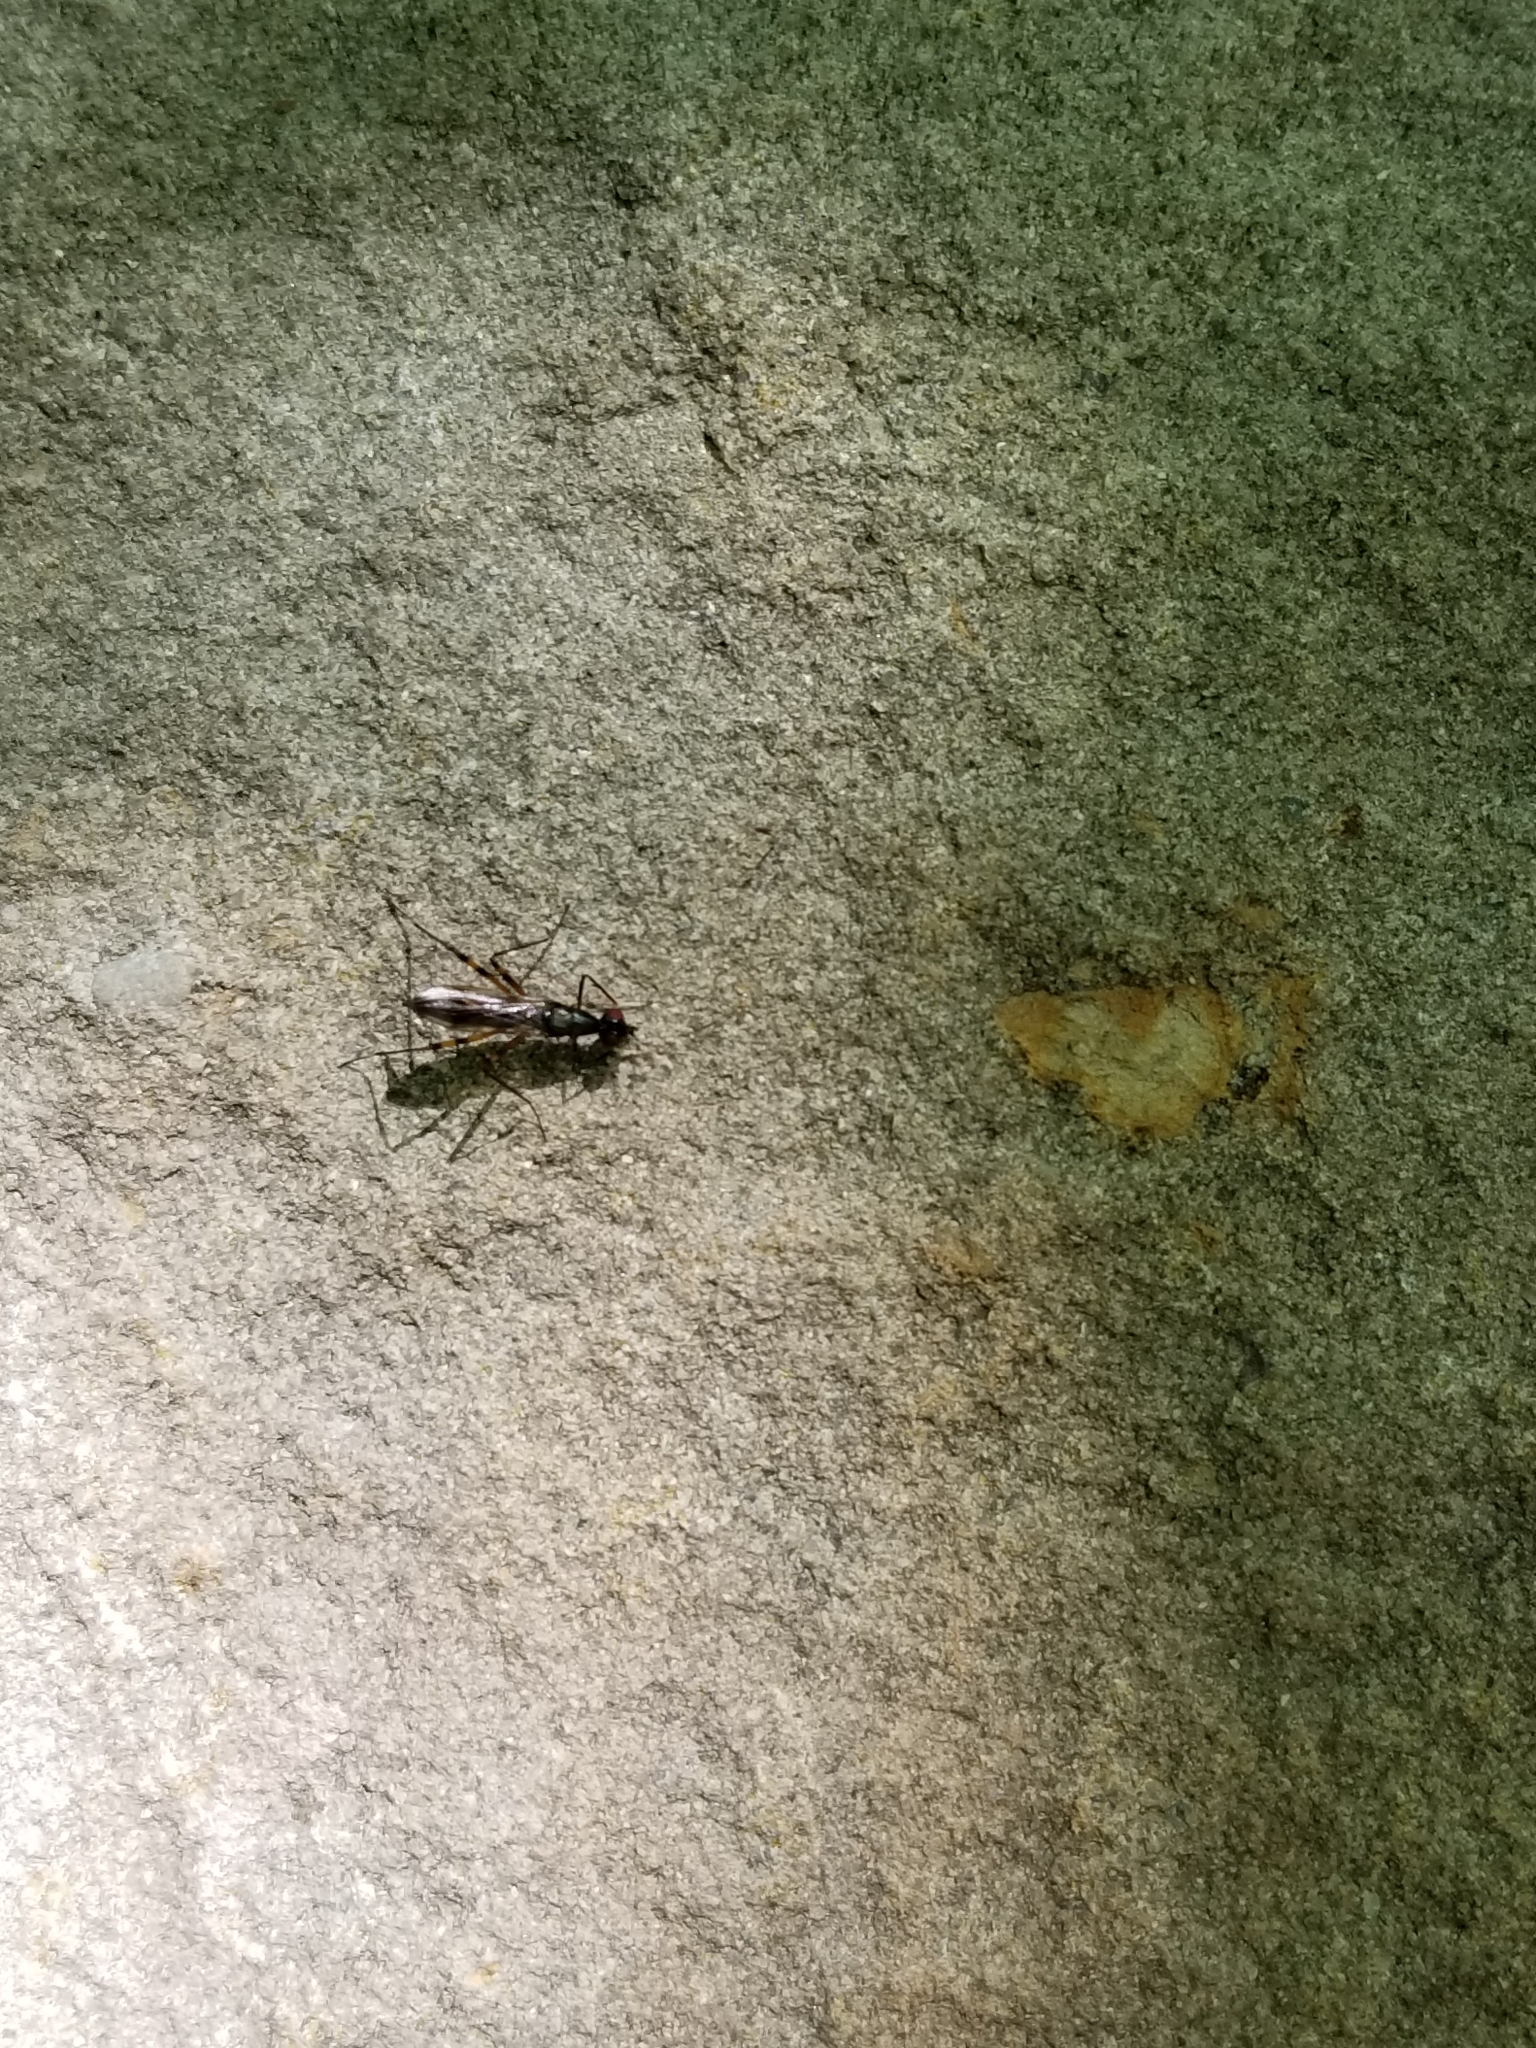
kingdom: Animalia
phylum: Arthropoda
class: Insecta
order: Diptera
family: Micropezidae
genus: Rainieria
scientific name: Rainieria antennaepes
